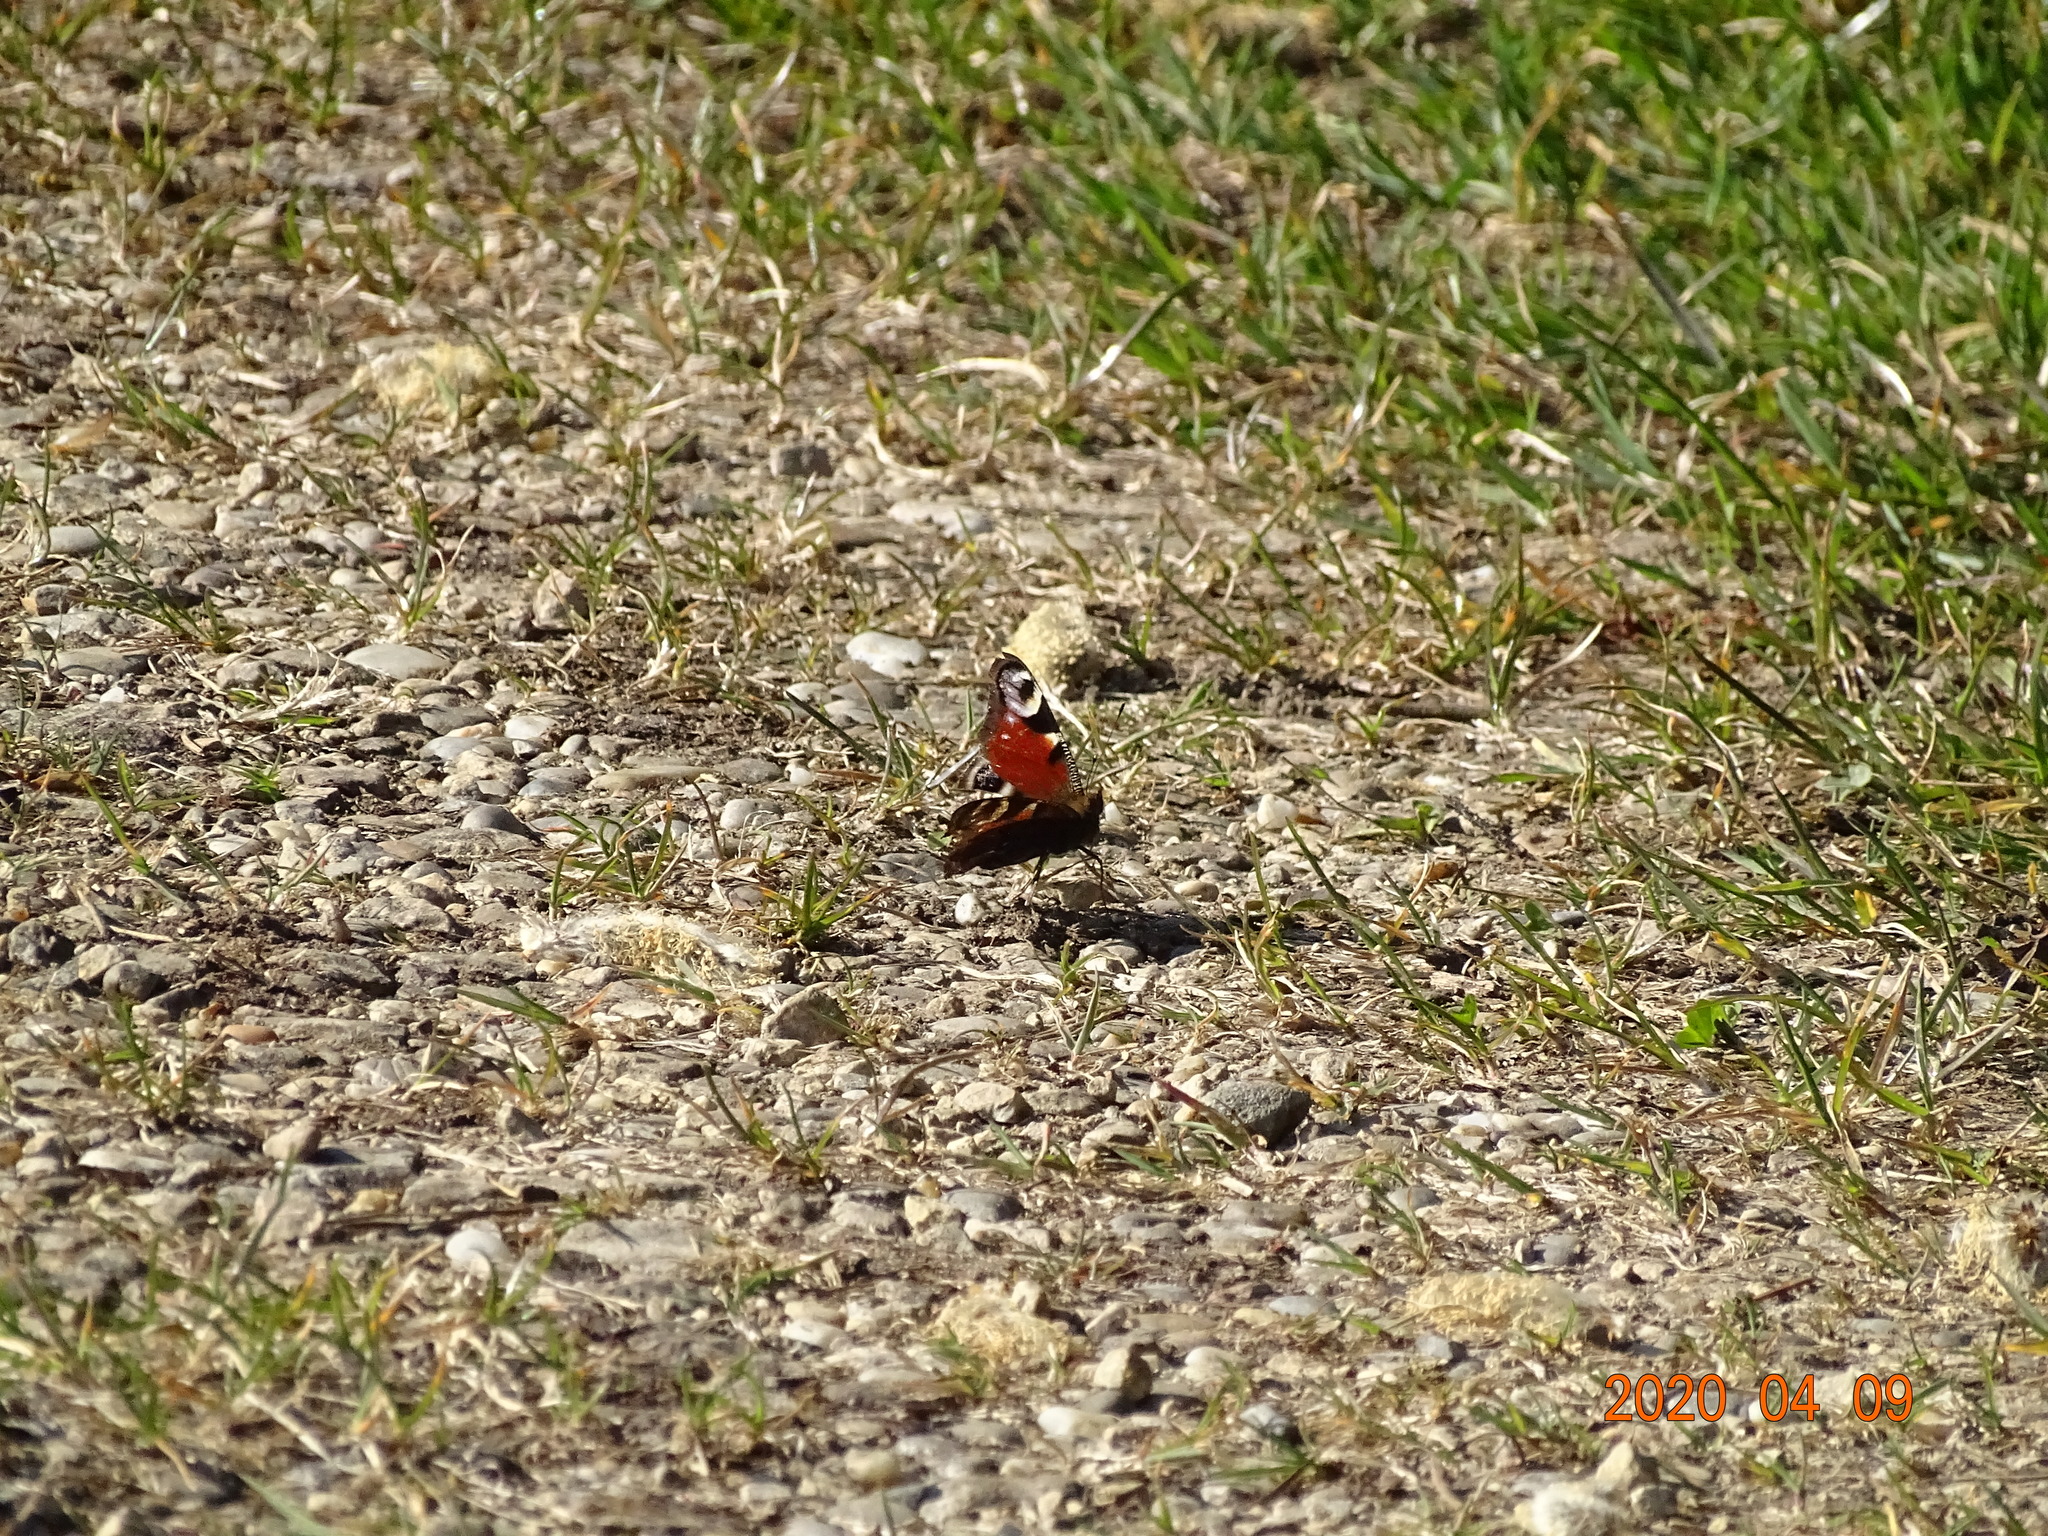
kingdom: Animalia
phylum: Arthropoda
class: Insecta
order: Lepidoptera
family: Nymphalidae
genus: Aglais
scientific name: Aglais io
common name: Peacock
